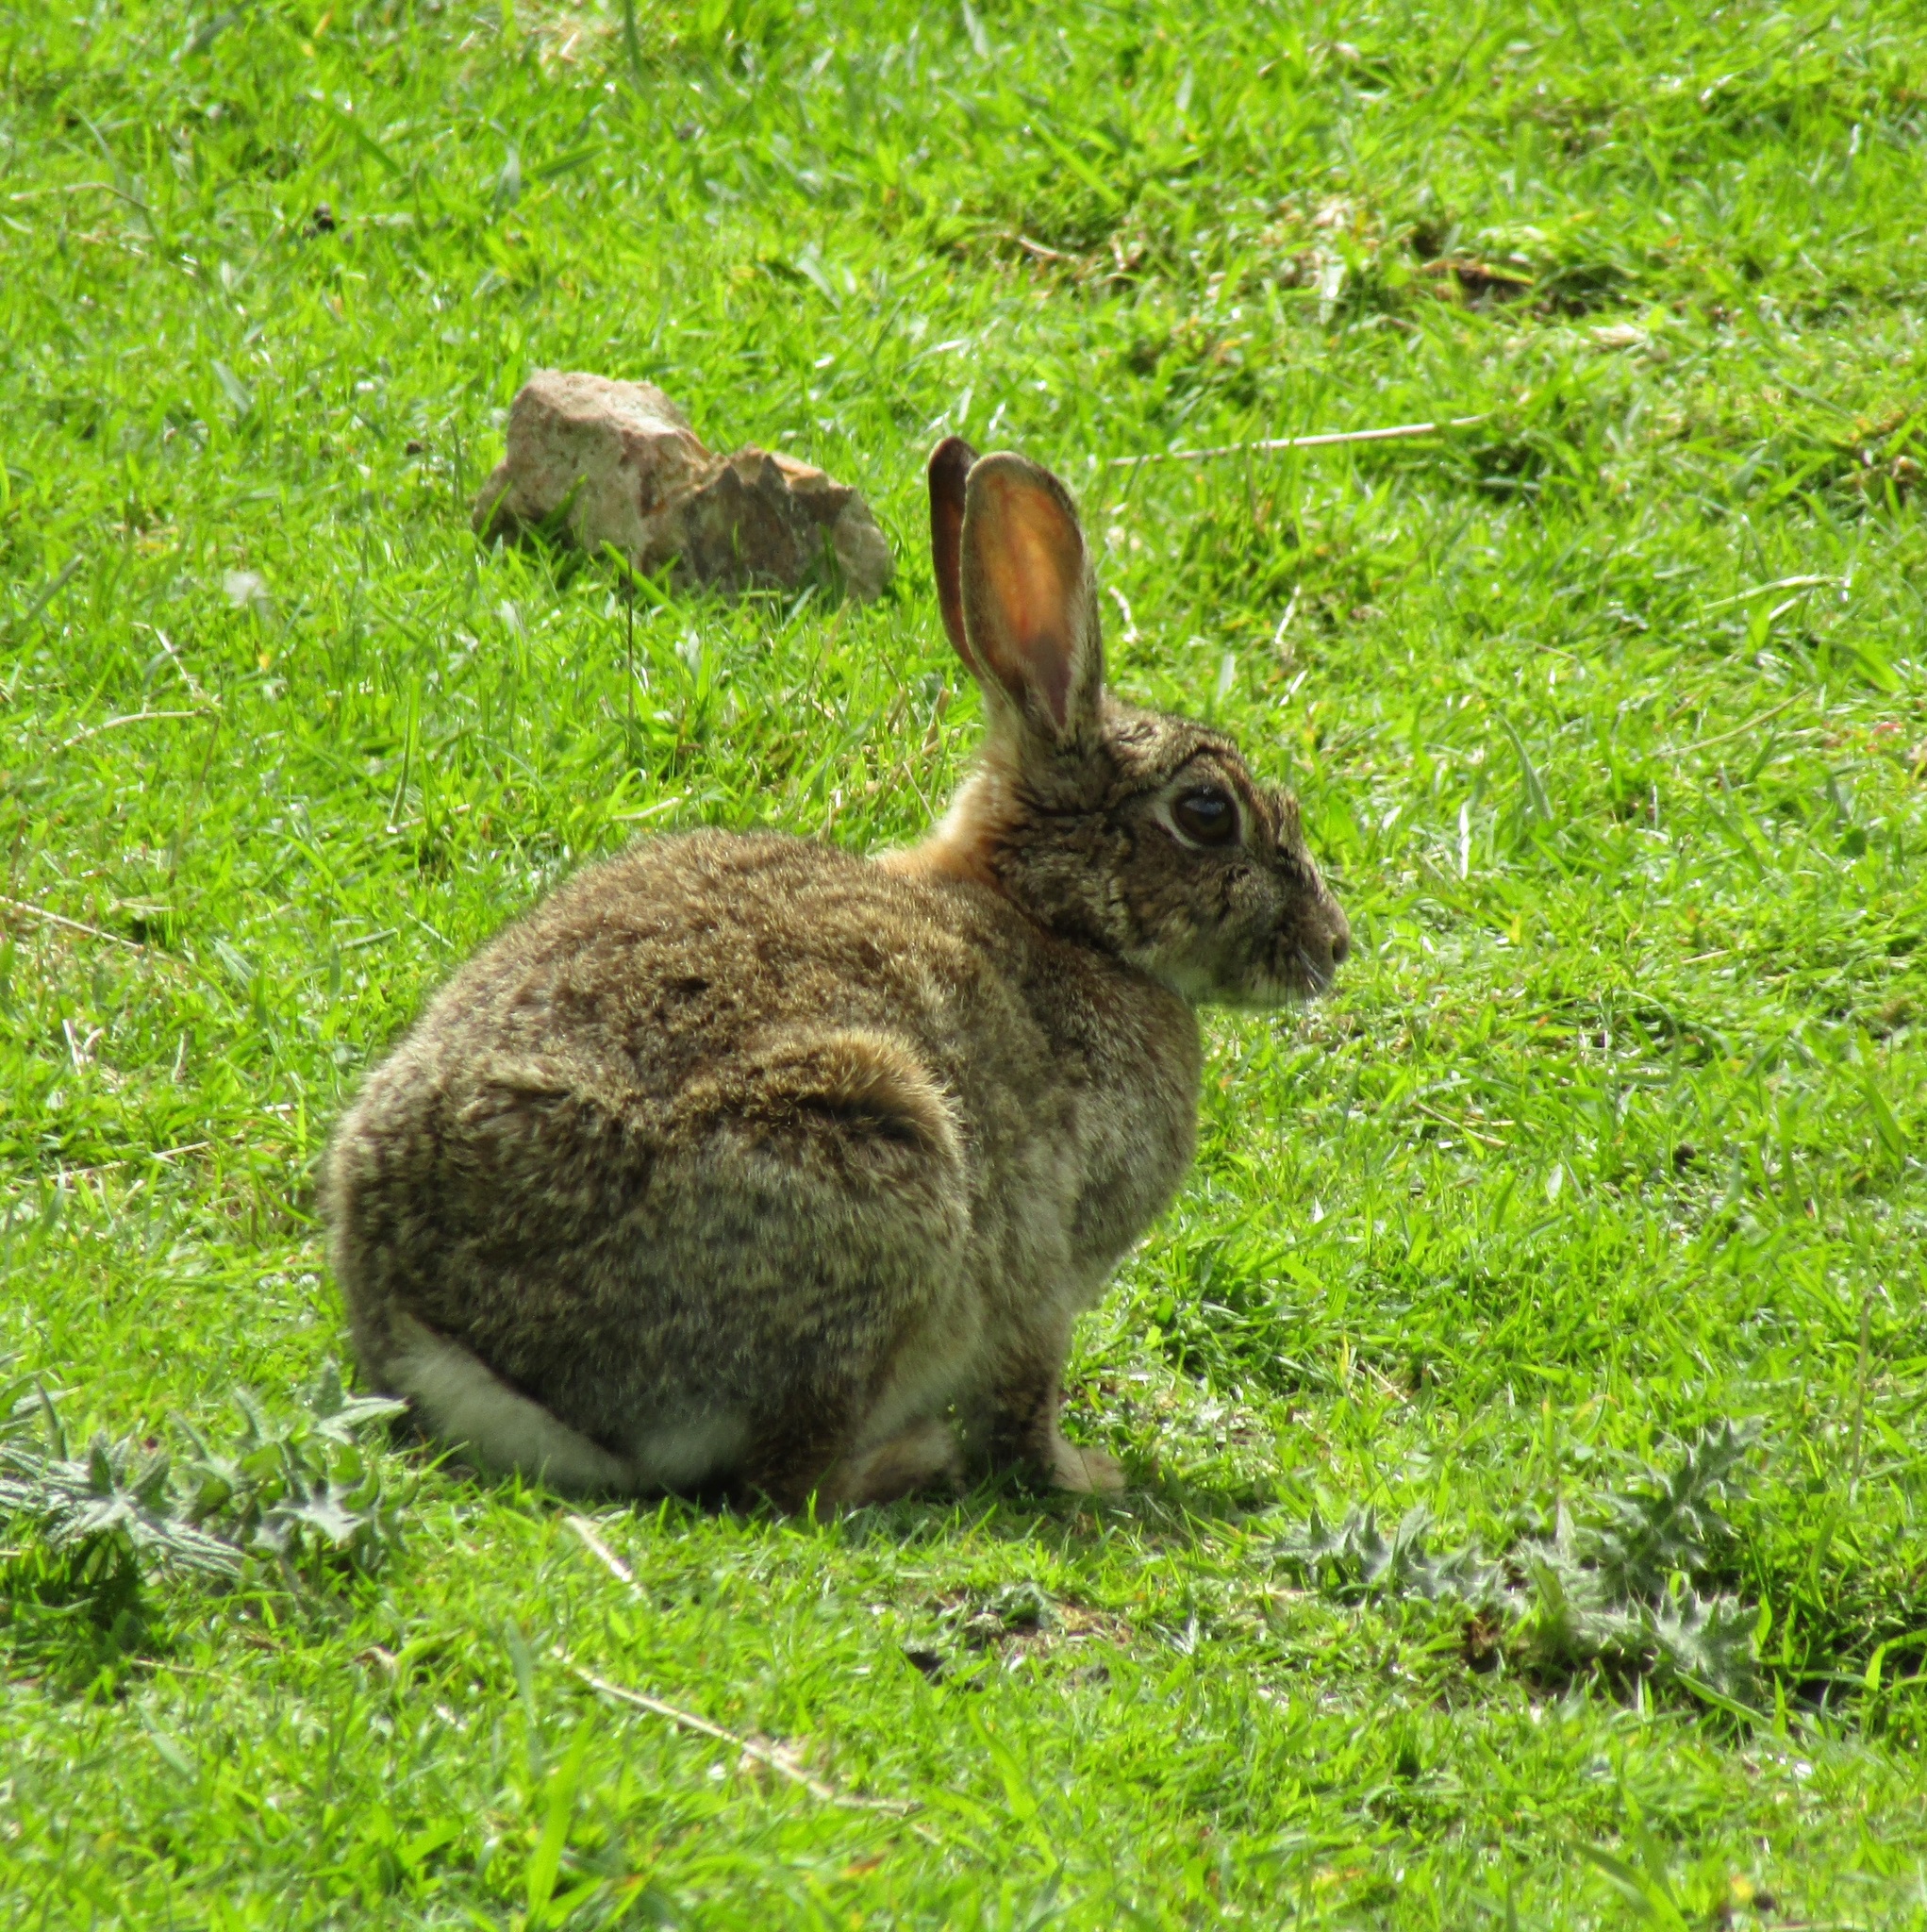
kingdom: Animalia
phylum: Chordata
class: Mammalia
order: Lagomorpha
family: Leporidae
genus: Oryctolagus
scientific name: Oryctolagus cuniculus
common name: European rabbit
